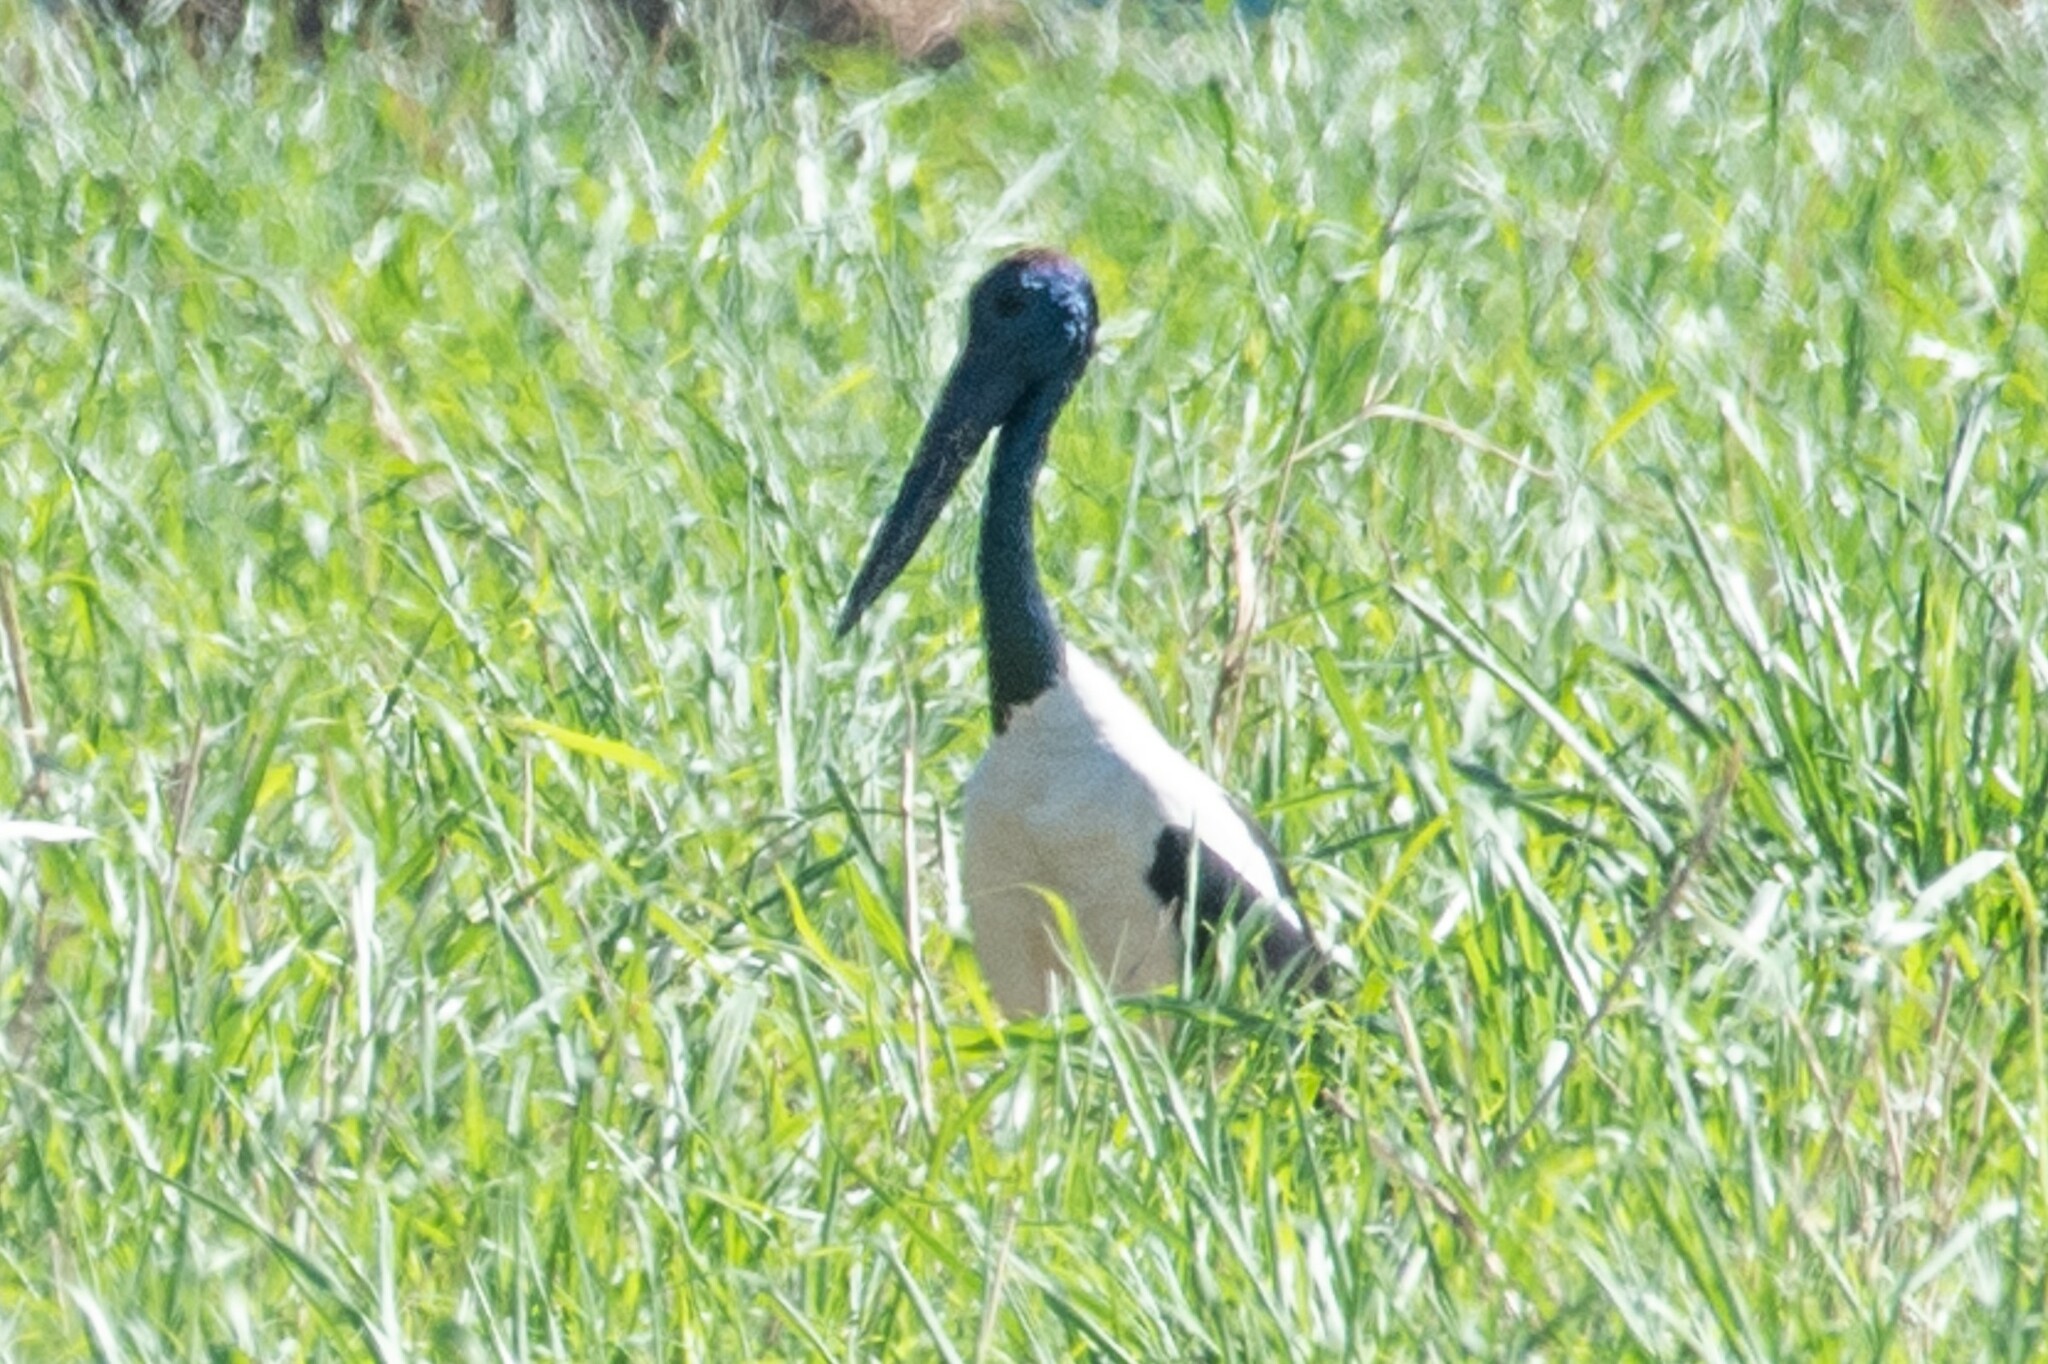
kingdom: Animalia
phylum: Chordata
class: Aves
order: Ciconiiformes
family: Ciconiidae
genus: Ephippiorhynchus
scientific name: Ephippiorhynchus asiaticus
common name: Black-necked stork
